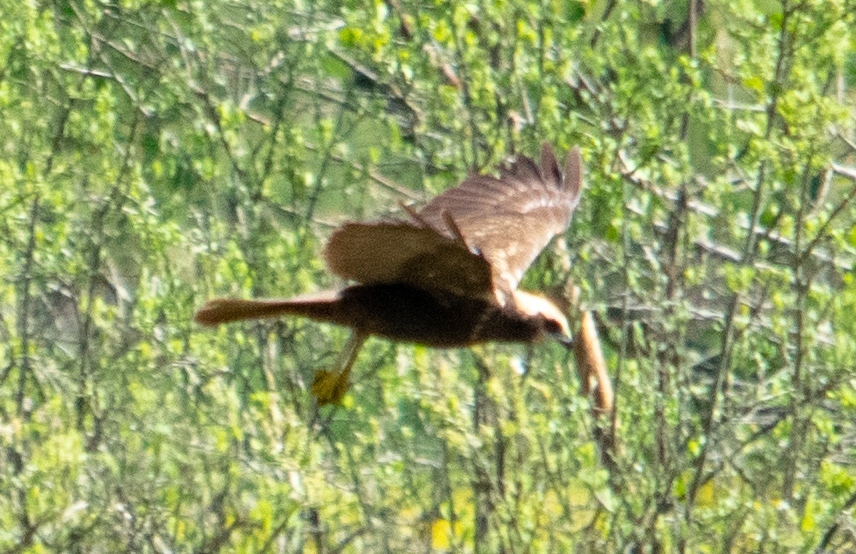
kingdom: Animalia
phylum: Chordata
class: Aves
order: Accipitriformes
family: Accipitridae
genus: Circus
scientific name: Circus aeruginosus
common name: Western marsh harrier
